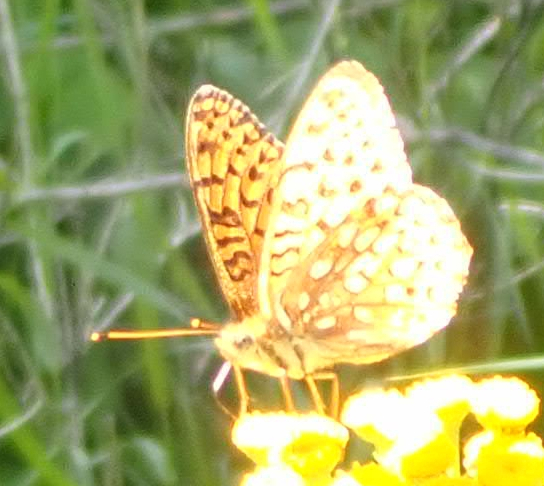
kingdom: Animalia
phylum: Arthropoda
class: Insecta
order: Lepidoptera
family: Nymphalidae
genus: Speyeria
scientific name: Speyeria aphrodite
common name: Aphrodite friitllary
